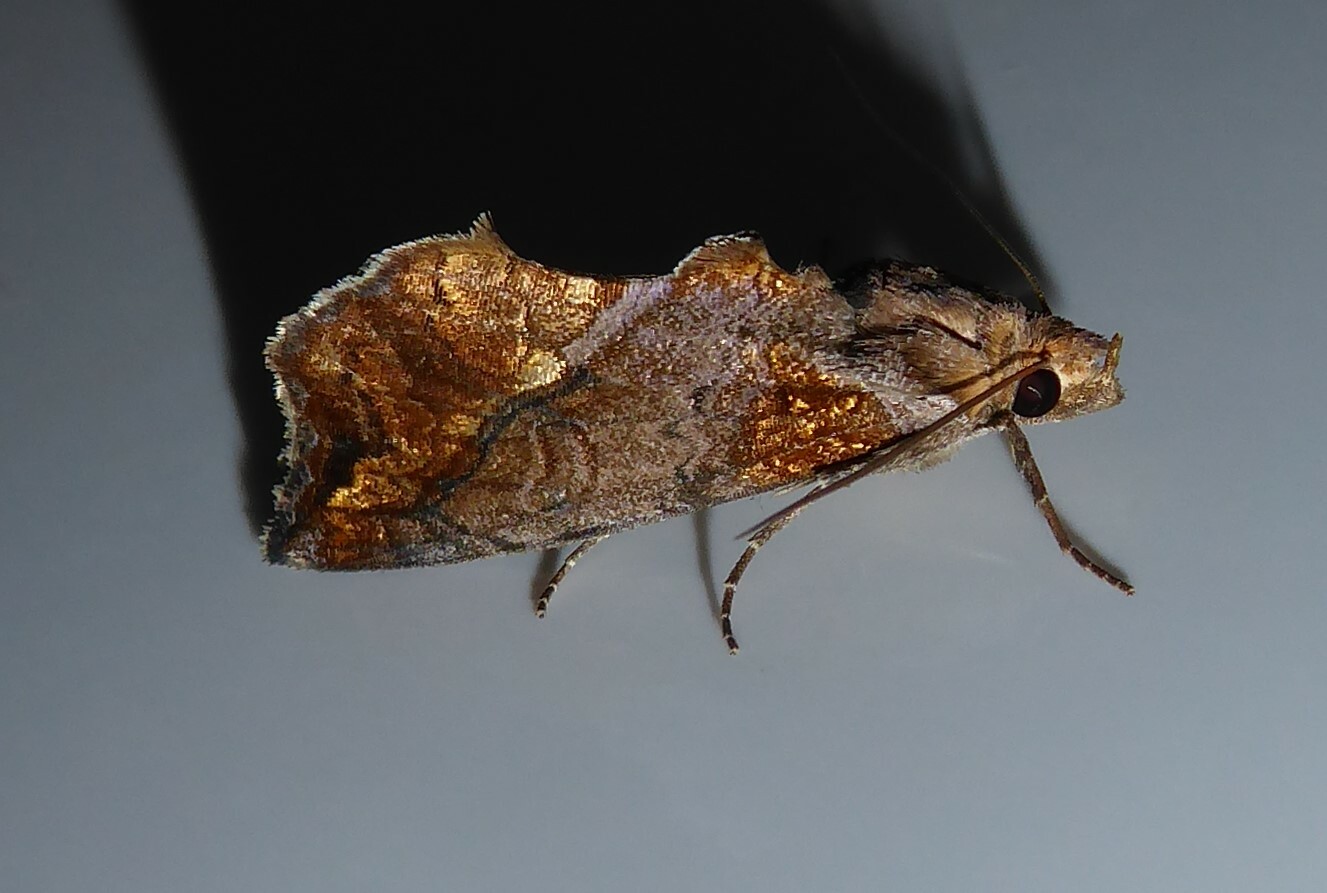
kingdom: Animalia
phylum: Arthropoda
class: Insecta
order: Lepidoptera
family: Erebidae
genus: Plusiodonta
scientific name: Plusiodonta arctipennis
